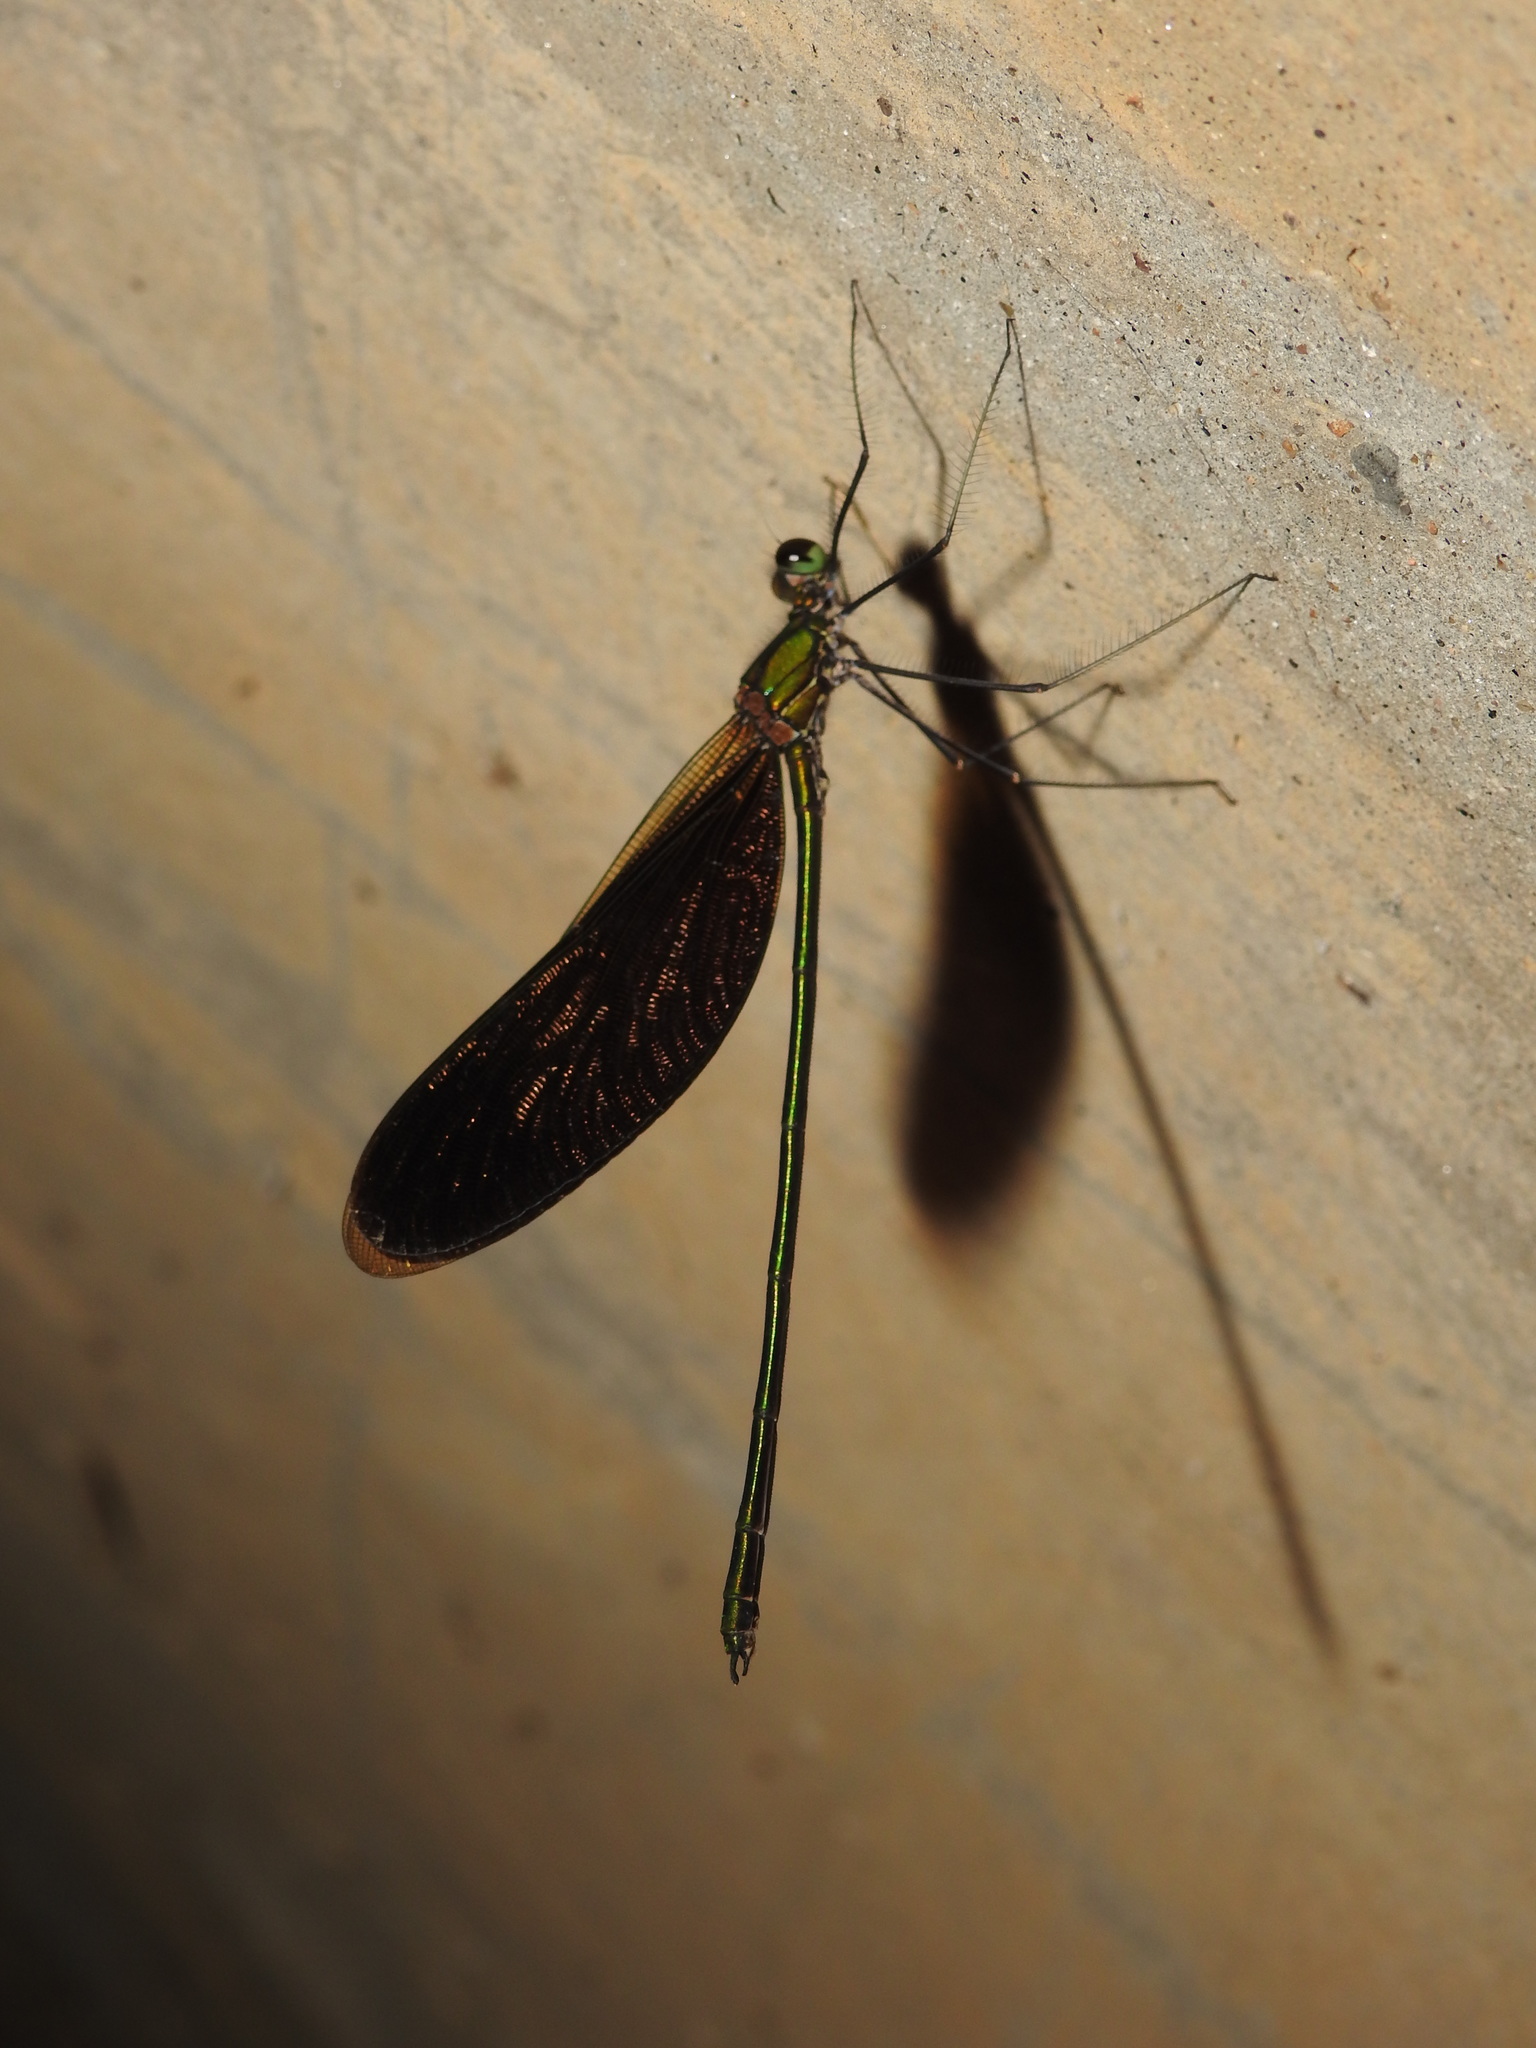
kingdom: Animalia
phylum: Arthropoda
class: Insecta
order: Odonata
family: Calopterygidae
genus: Neurobasis
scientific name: Neurobasis chinensis
